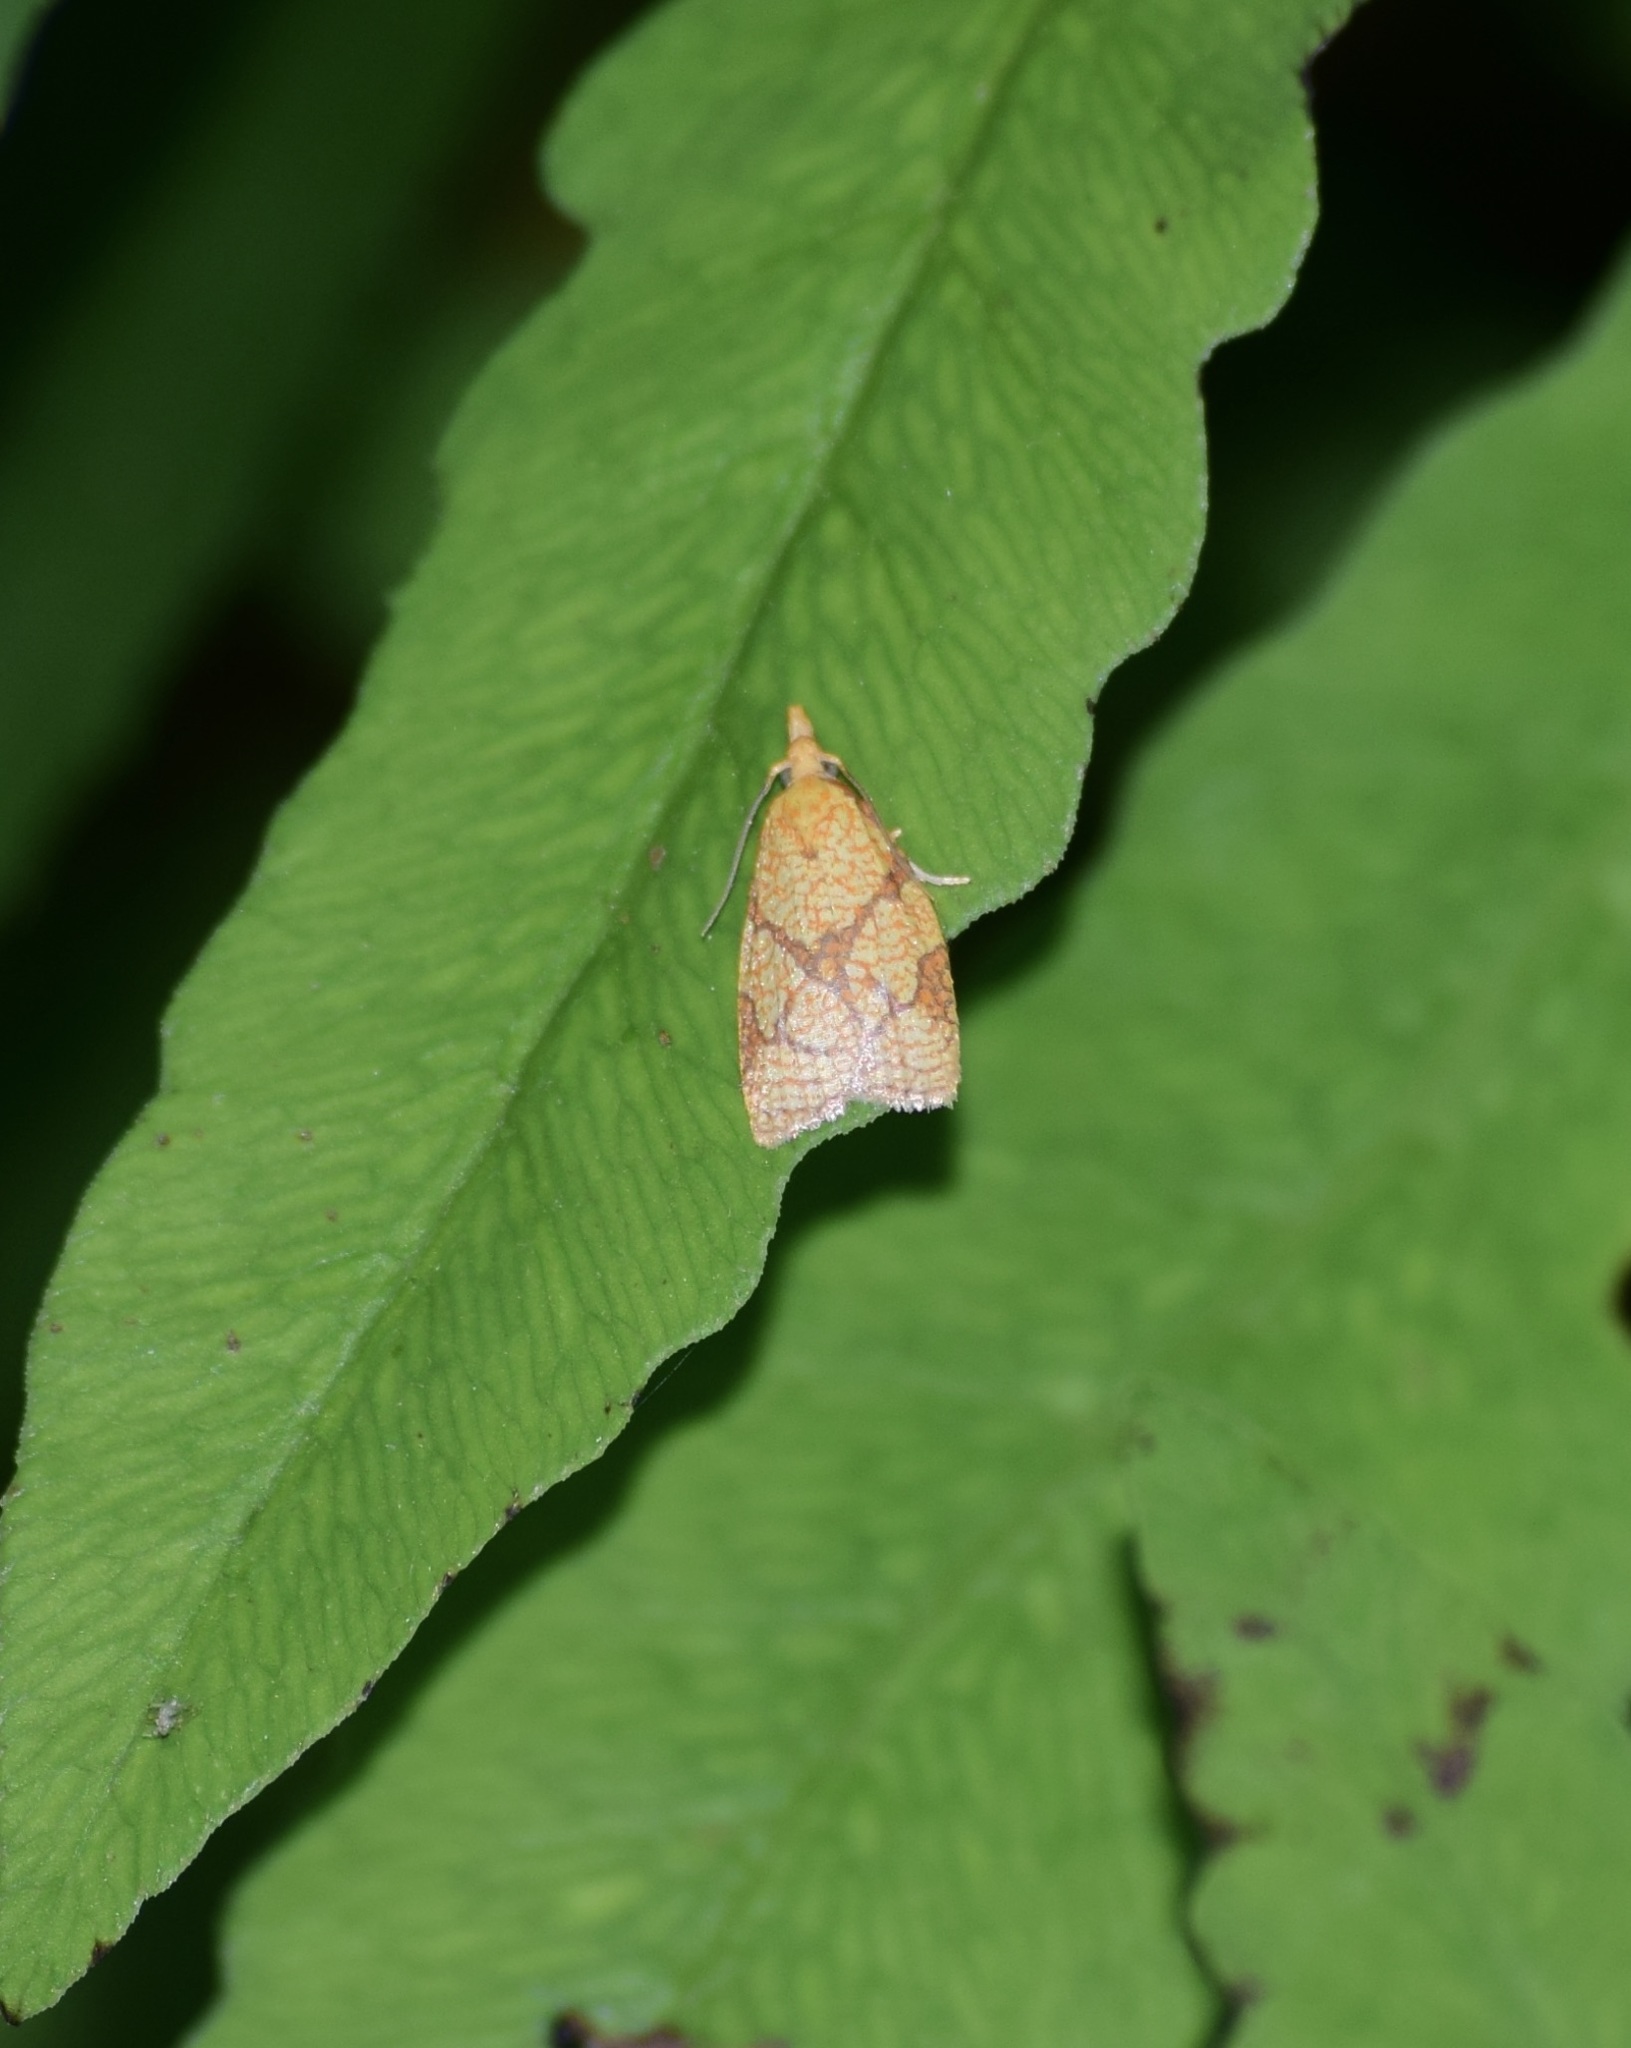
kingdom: Animalia
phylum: Arthropoda
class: Insecta
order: Lepidoptera
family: Tortricidae
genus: Cenopis
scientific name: Cenopis reticulatana
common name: Reticulated fruitworm moth
